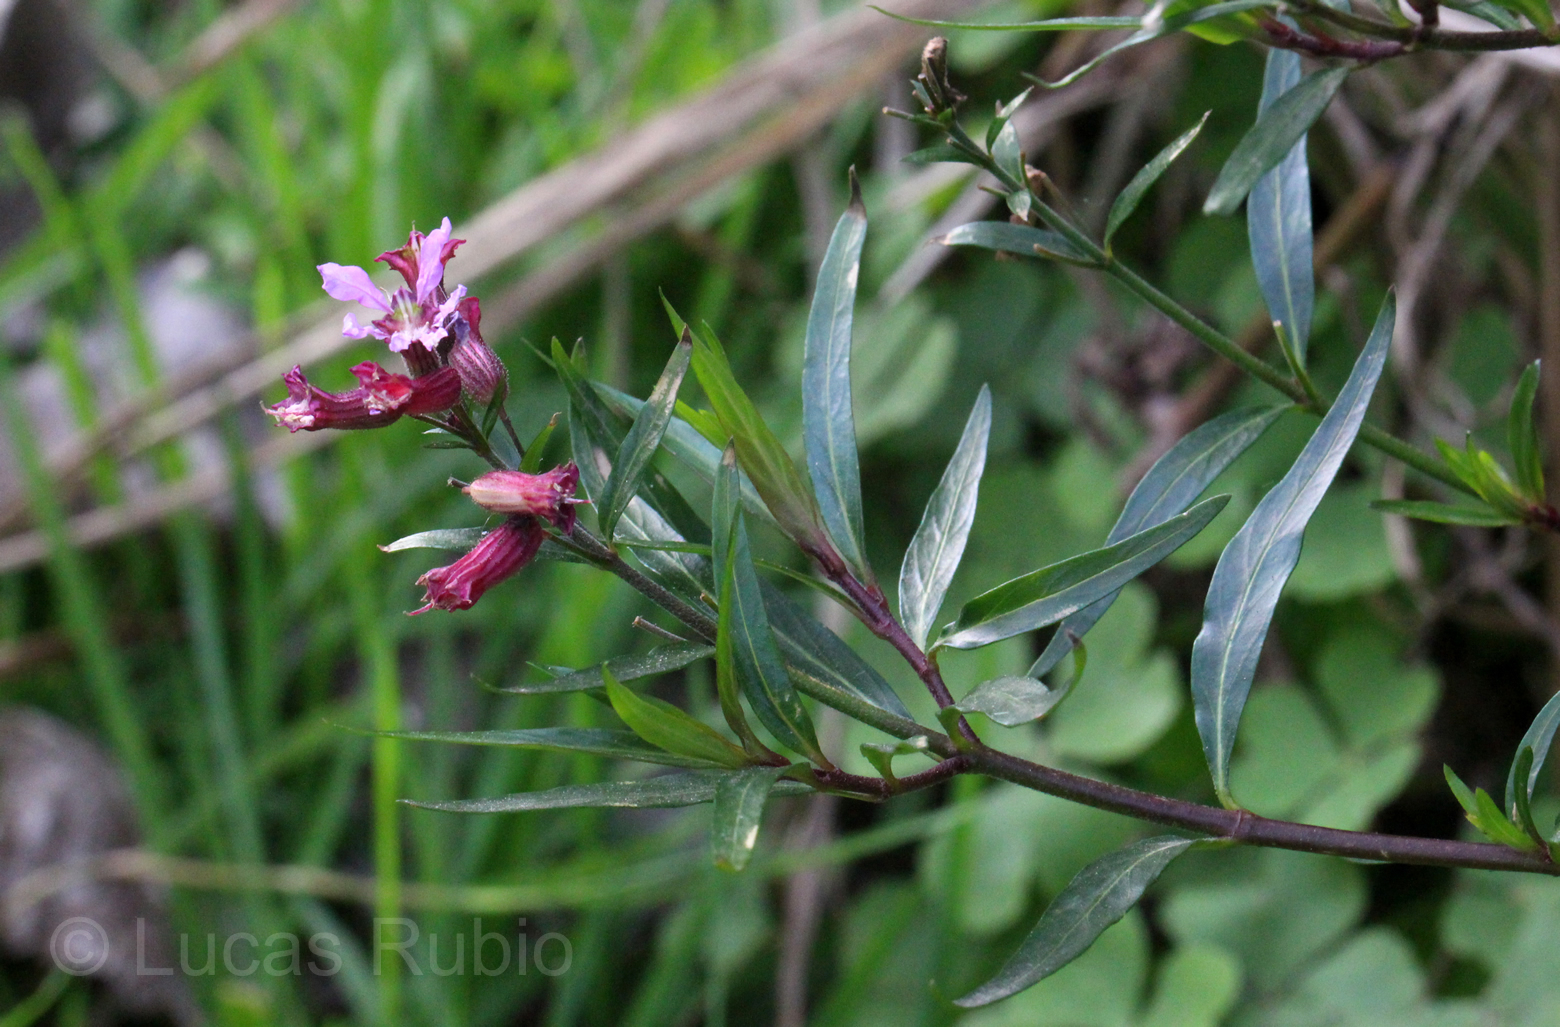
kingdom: Plantae
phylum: Tracheophyta
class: Magnoliopsida
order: Myrtales
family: Lythraceae
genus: Cuphea
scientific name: Cuphea fruticosa
